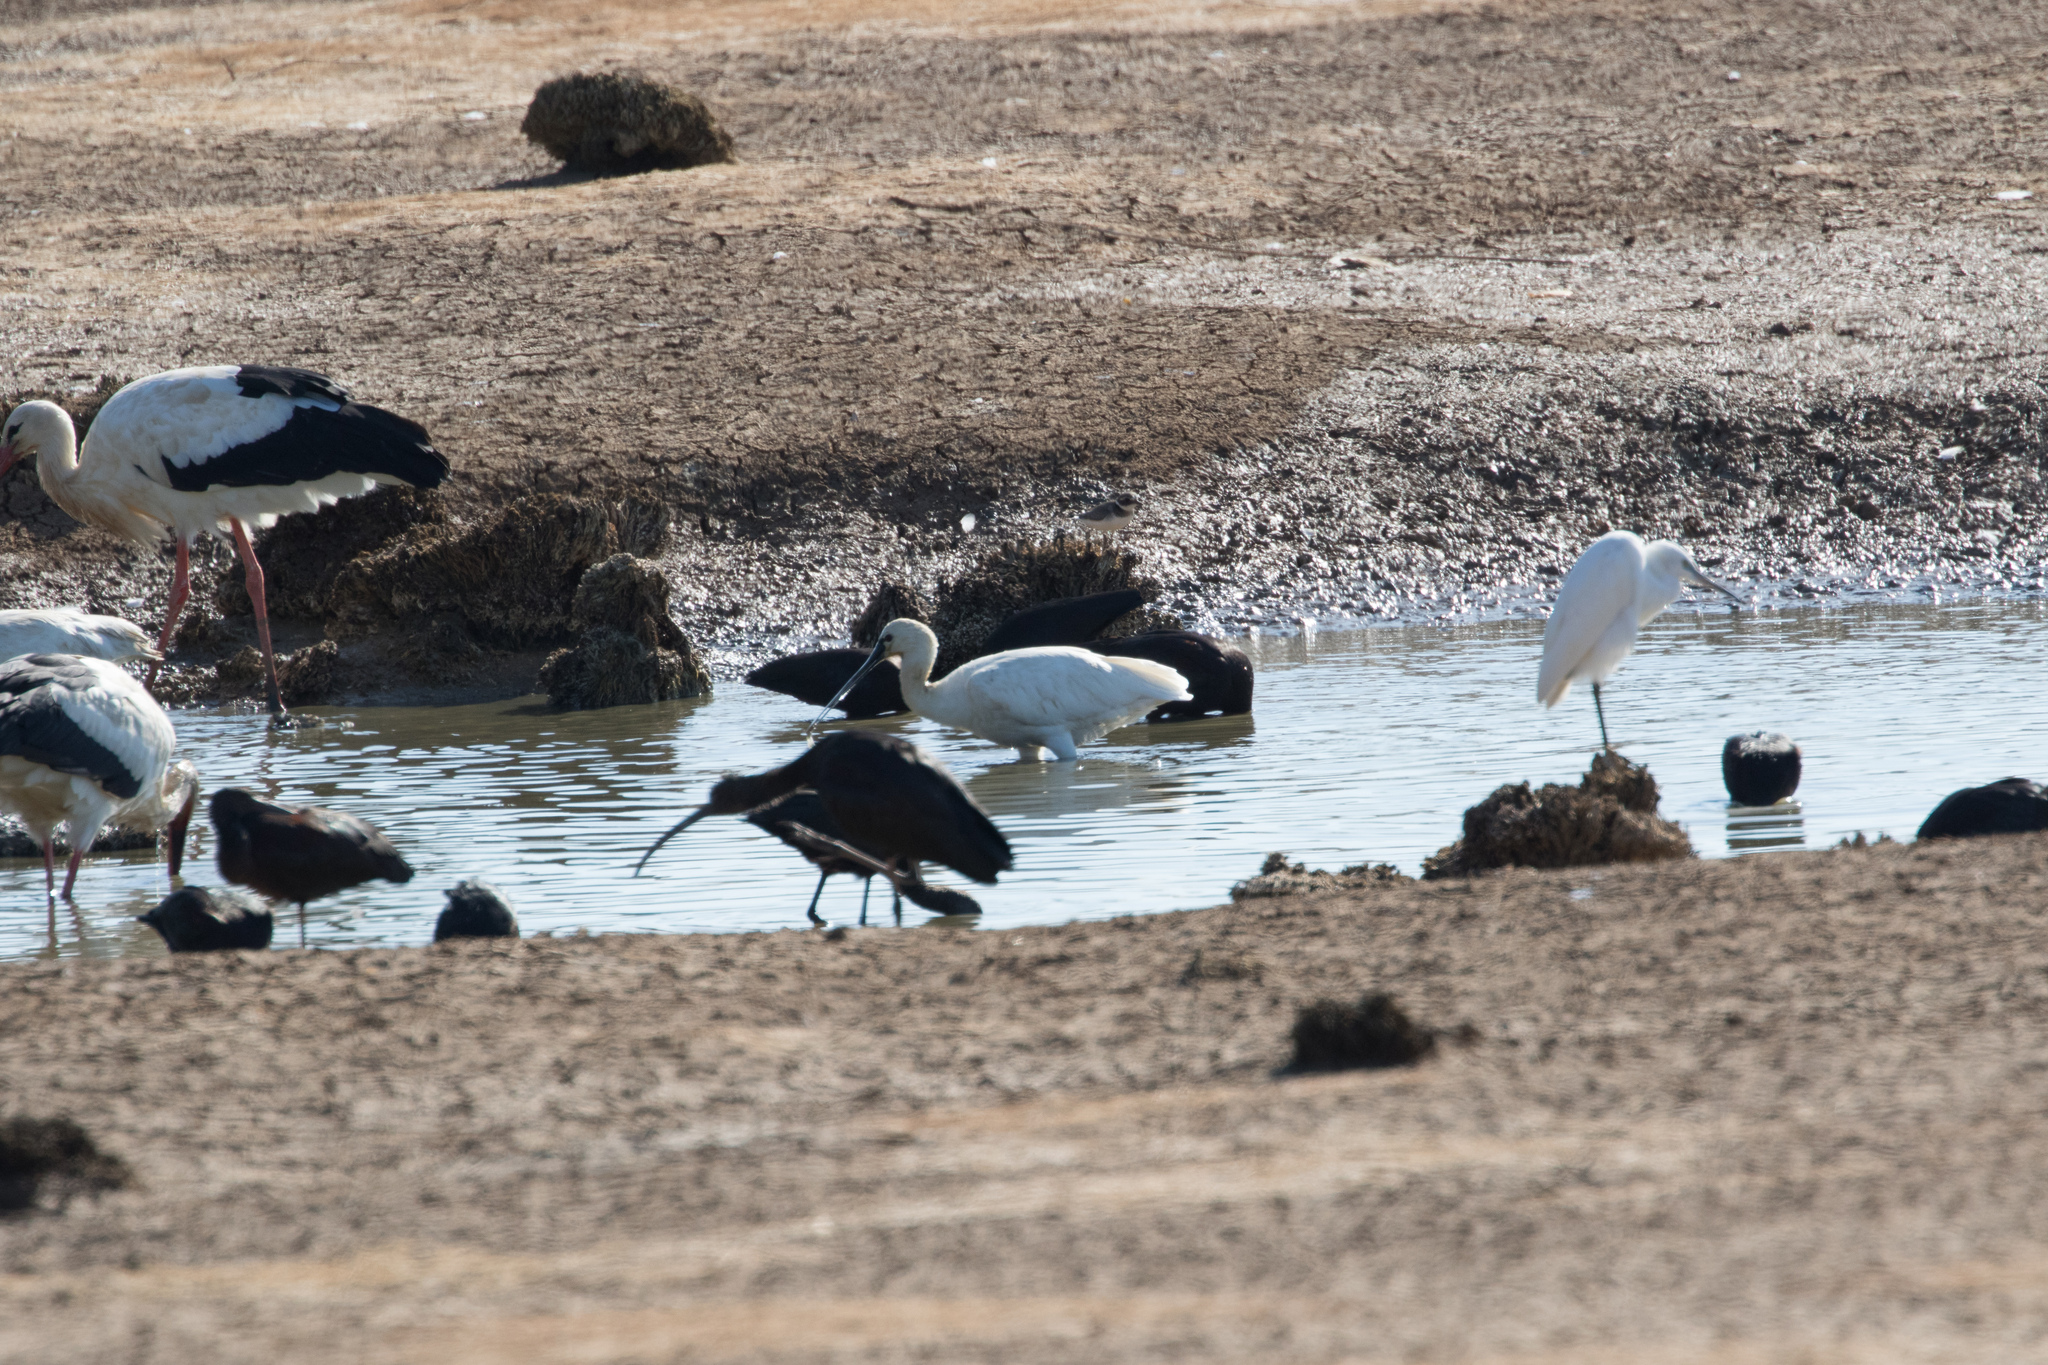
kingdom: Animalia
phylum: Chordata
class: Aves
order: Pelecaniformes
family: Threskiornithidae
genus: Plegadis
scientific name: Plegadis falcinellus
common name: Glossy ibis
